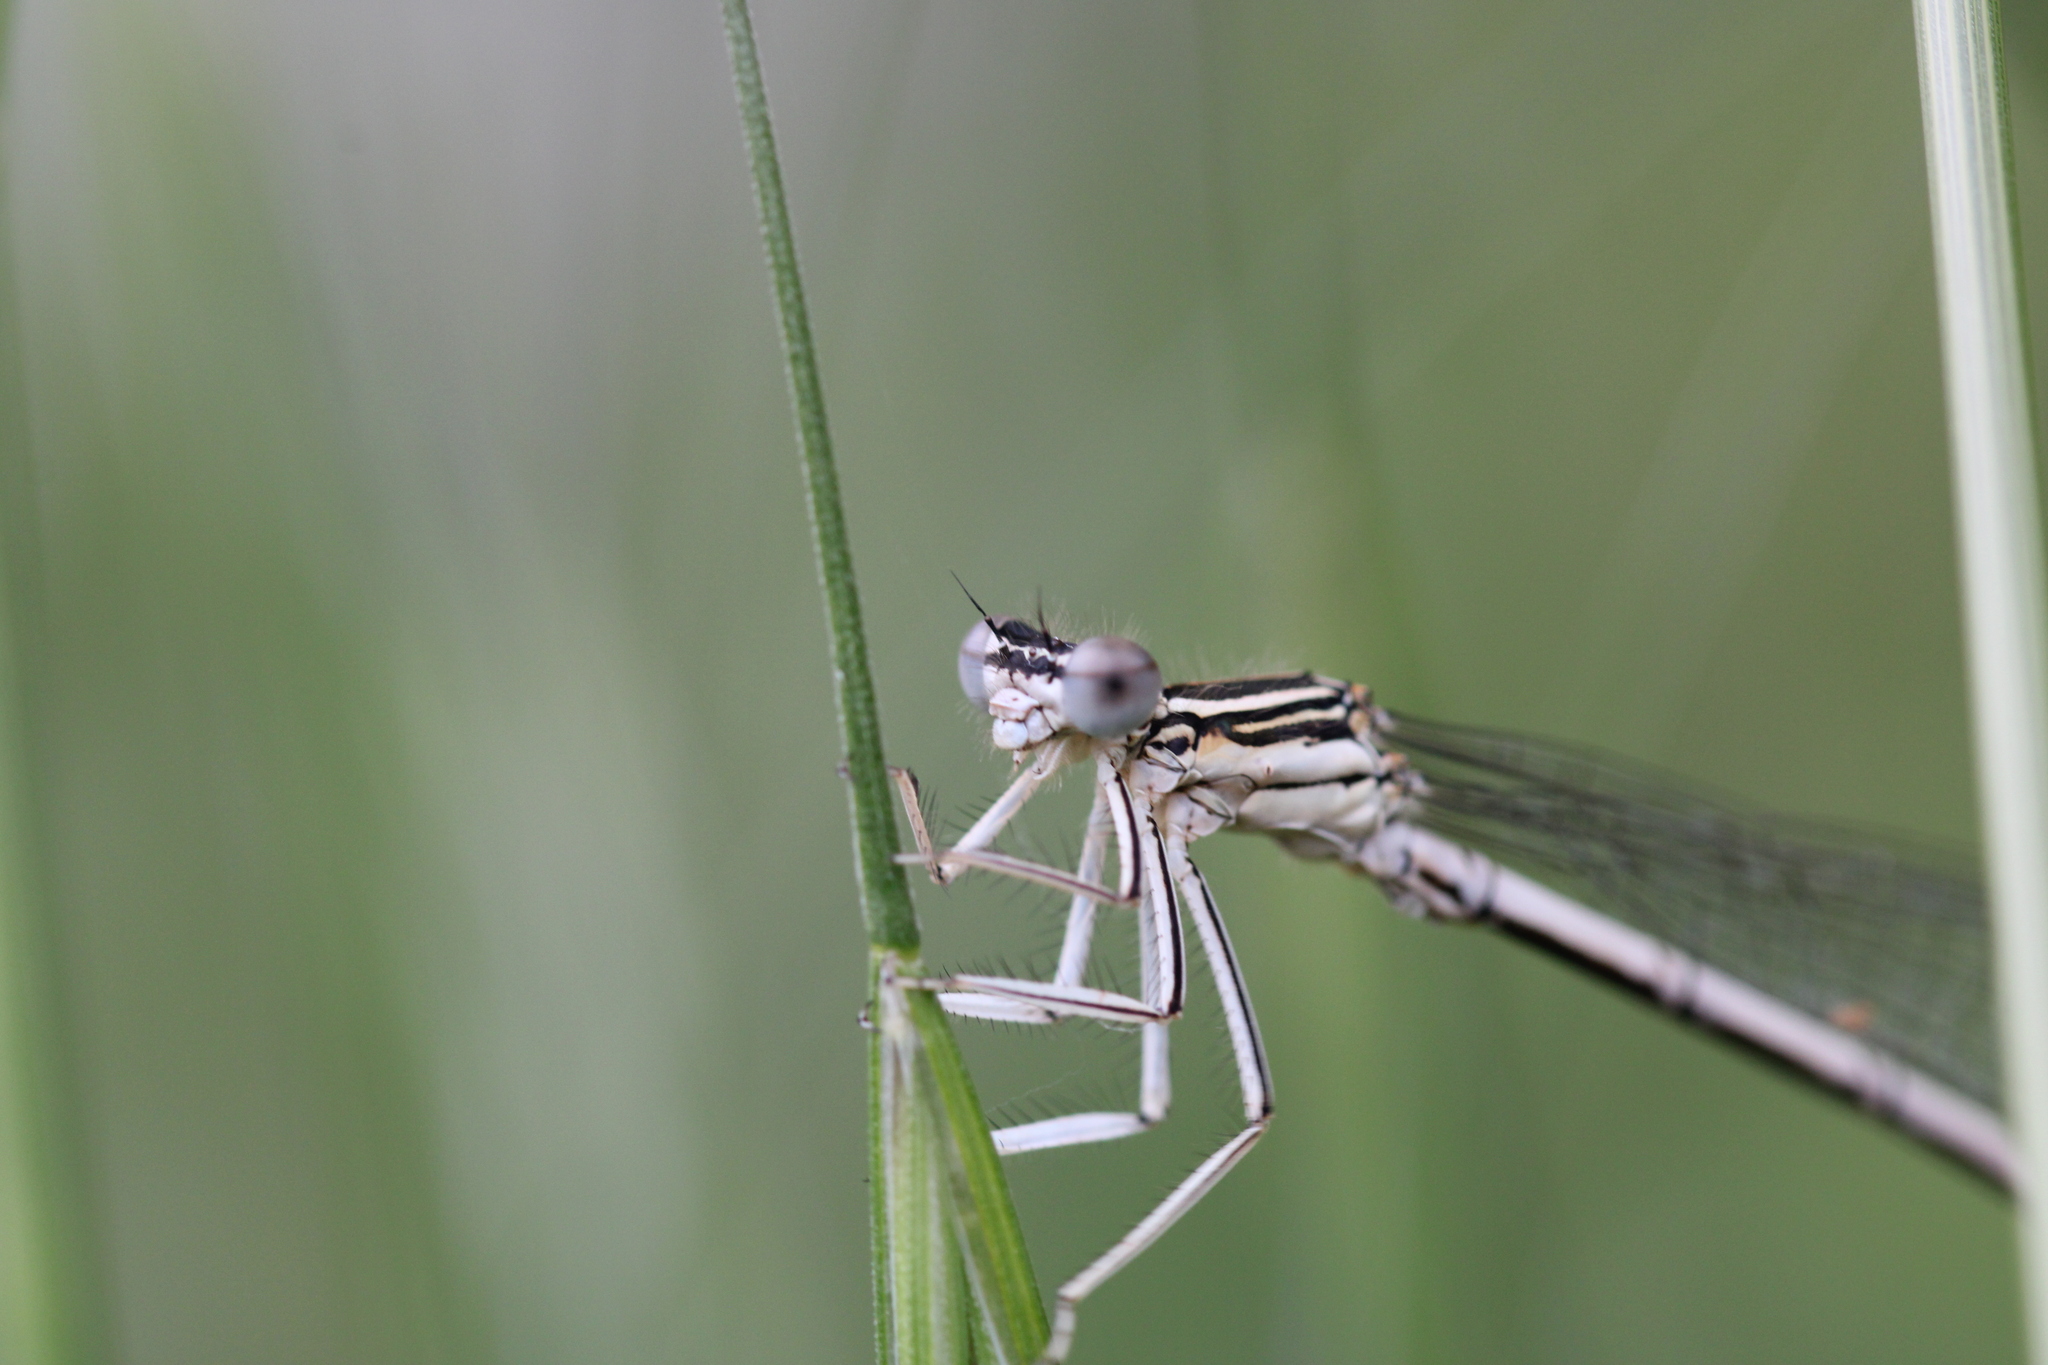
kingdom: Animalia
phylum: Arthropoda
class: Insecta
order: Odonata
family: Platycnemididae
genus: Platycnemis
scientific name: Platycnemis pennipes
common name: White-legged damselfly
